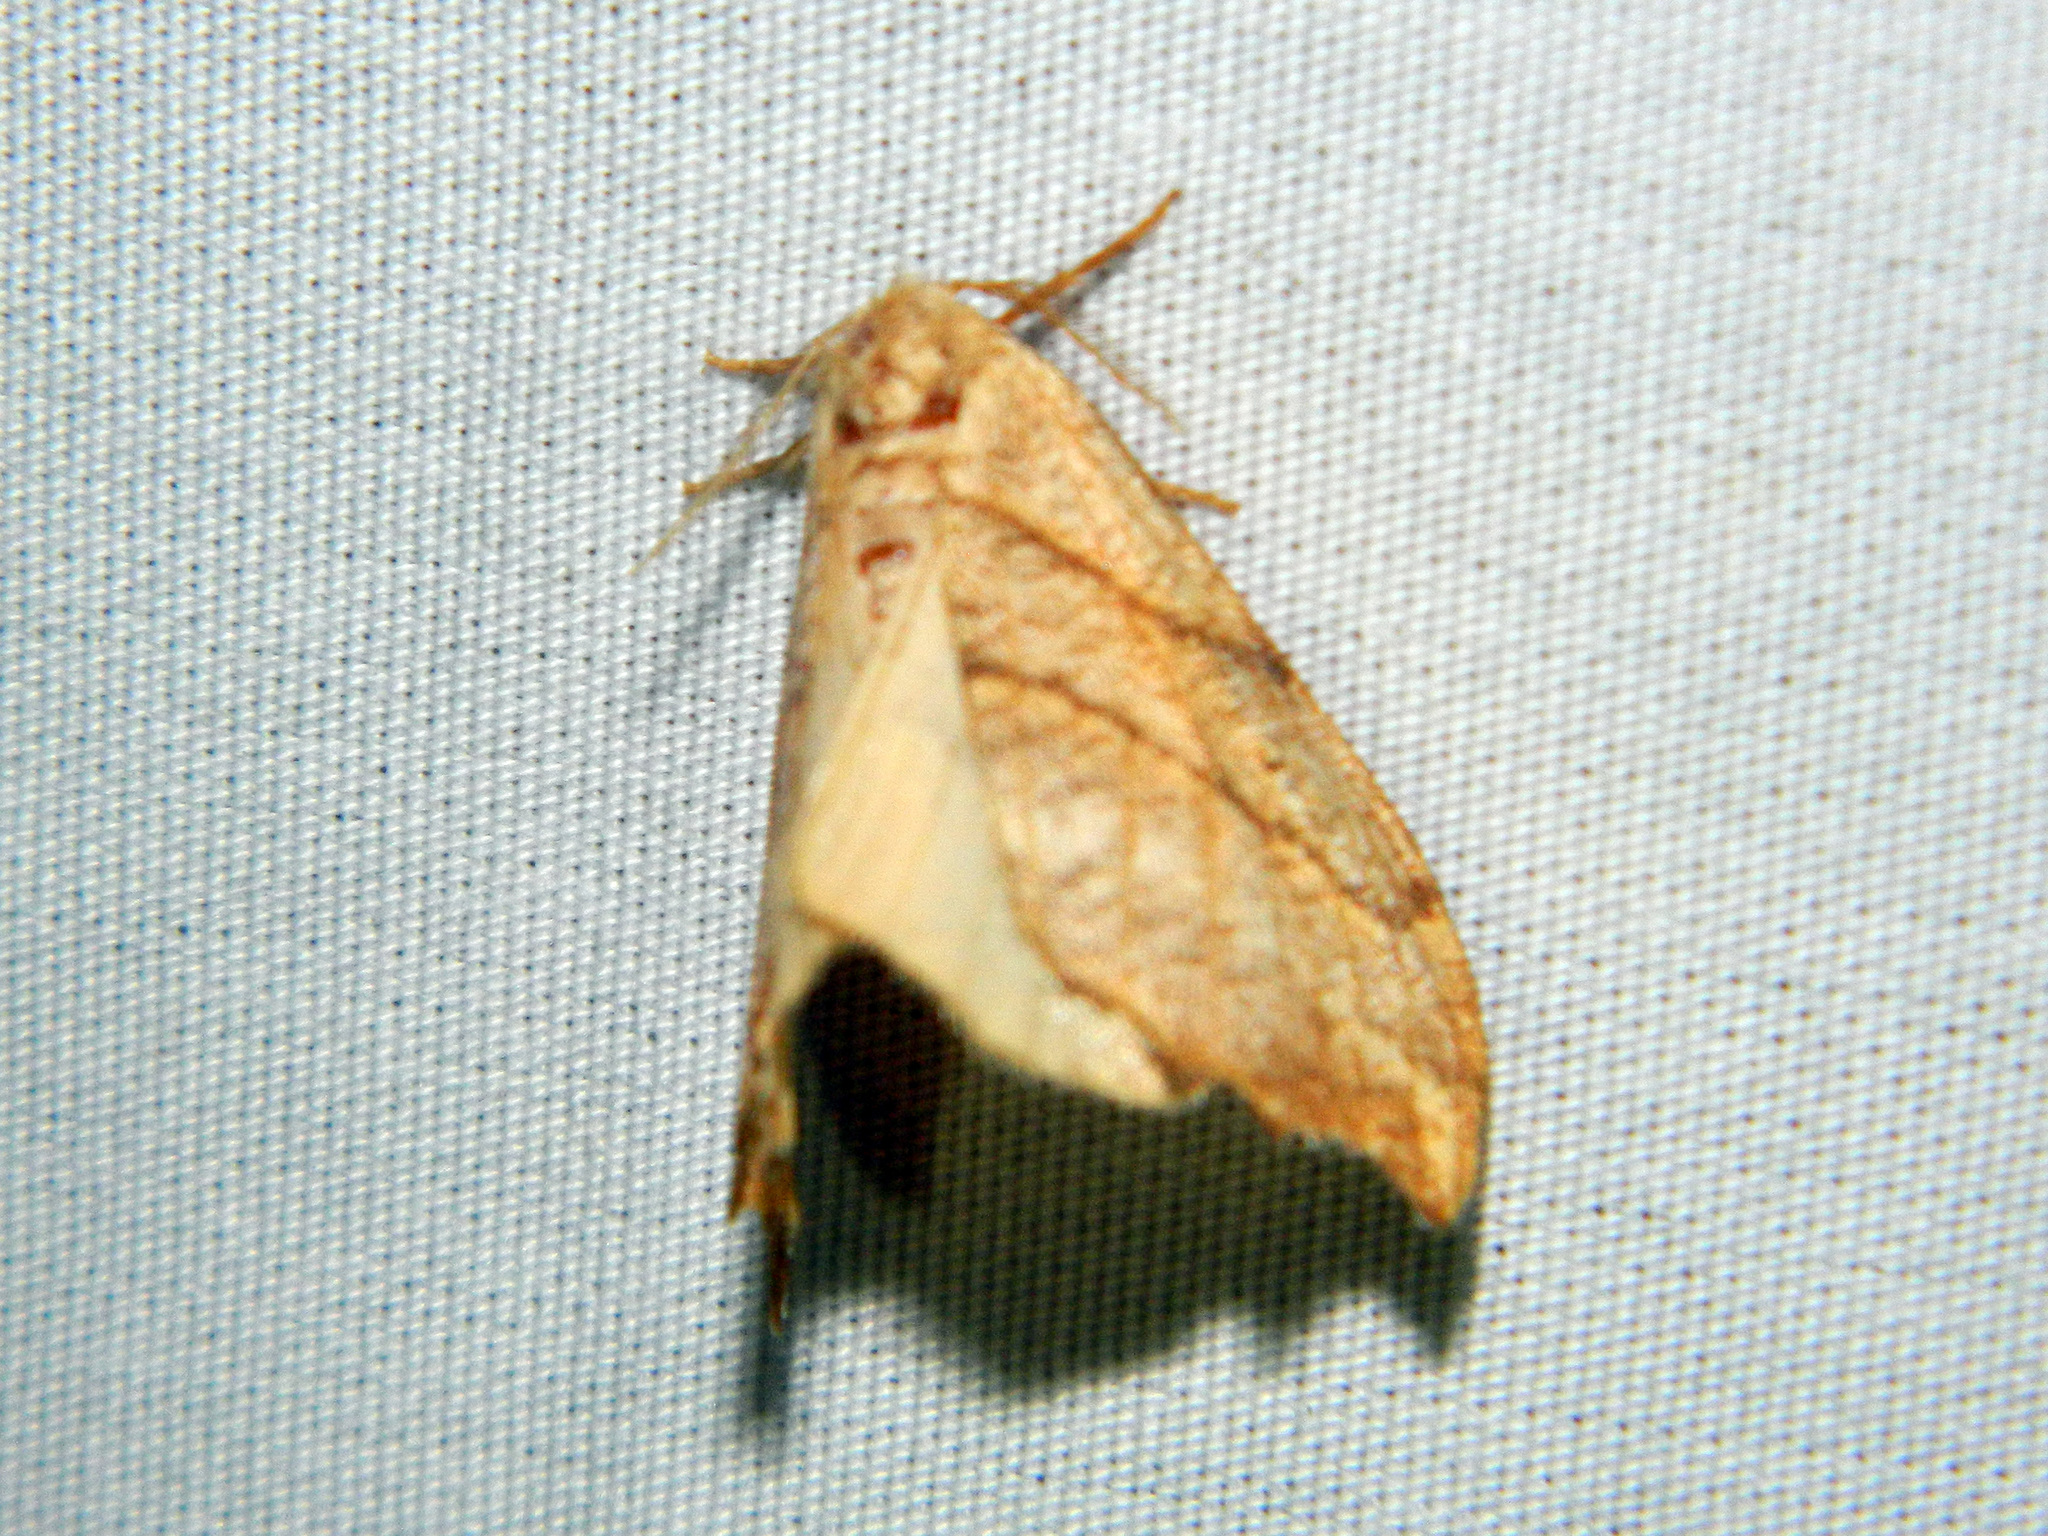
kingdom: Animalia
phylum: Arthropoda
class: Insecta
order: Lepidoptera
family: Drepanidae
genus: Falcaria
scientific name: Falcaria bilineata
